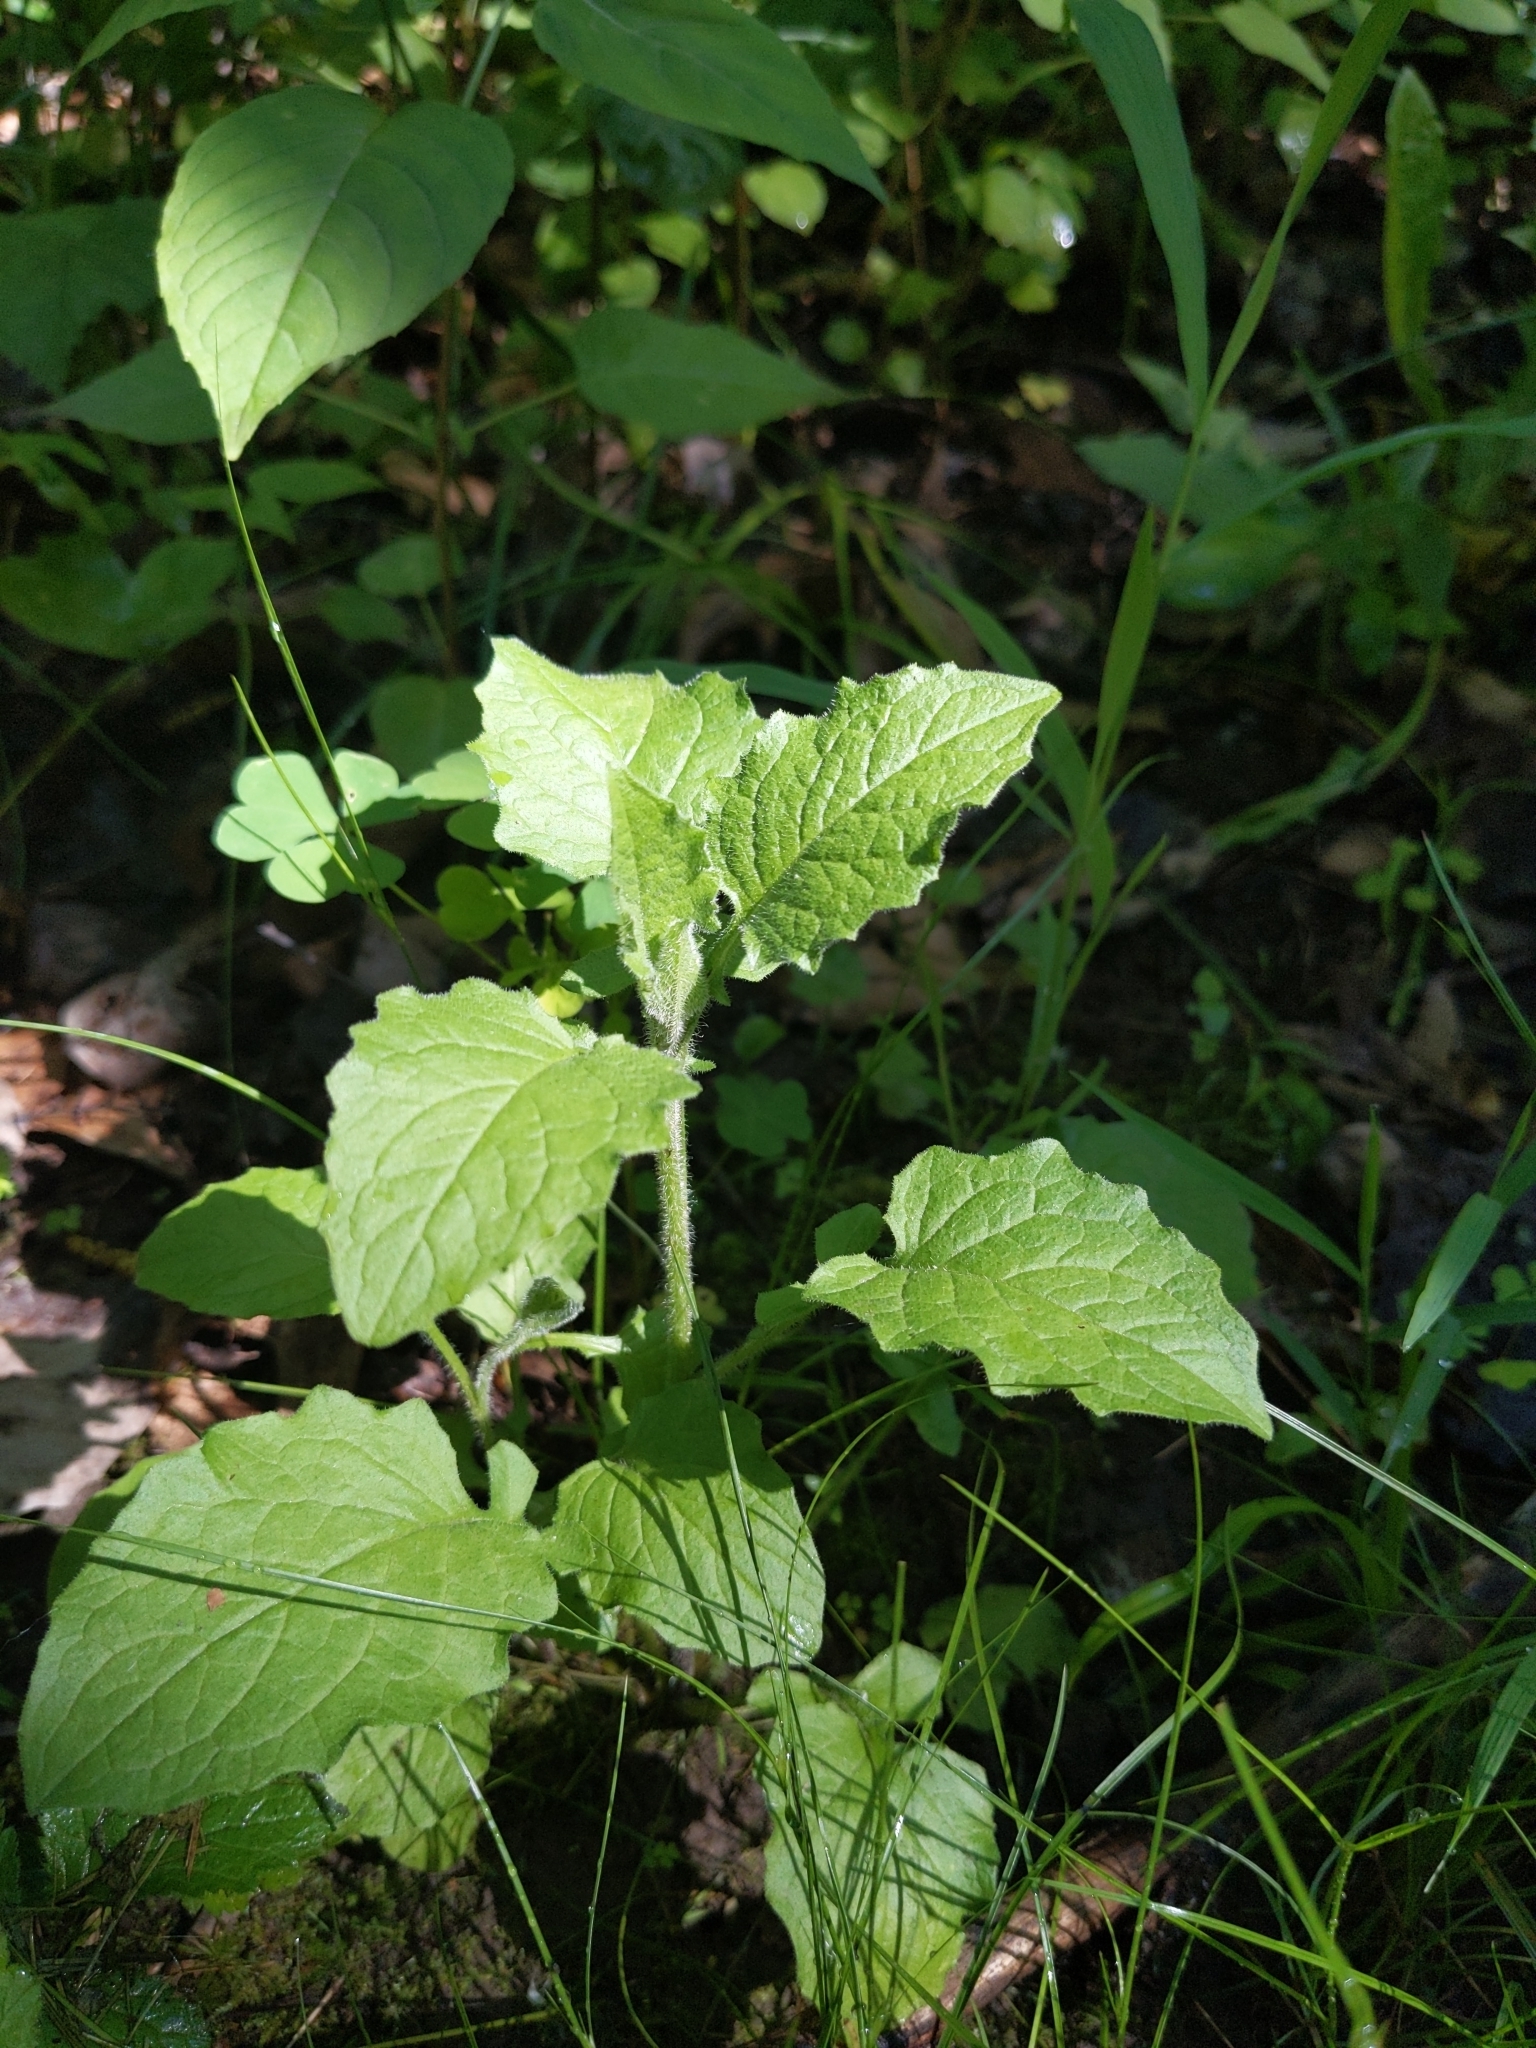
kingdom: Plantae
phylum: Tracheophyta
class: Magnoliopsida
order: Asterales
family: Asteraceae
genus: Lapsana
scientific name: Lapsana communis
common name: Nipplewort
